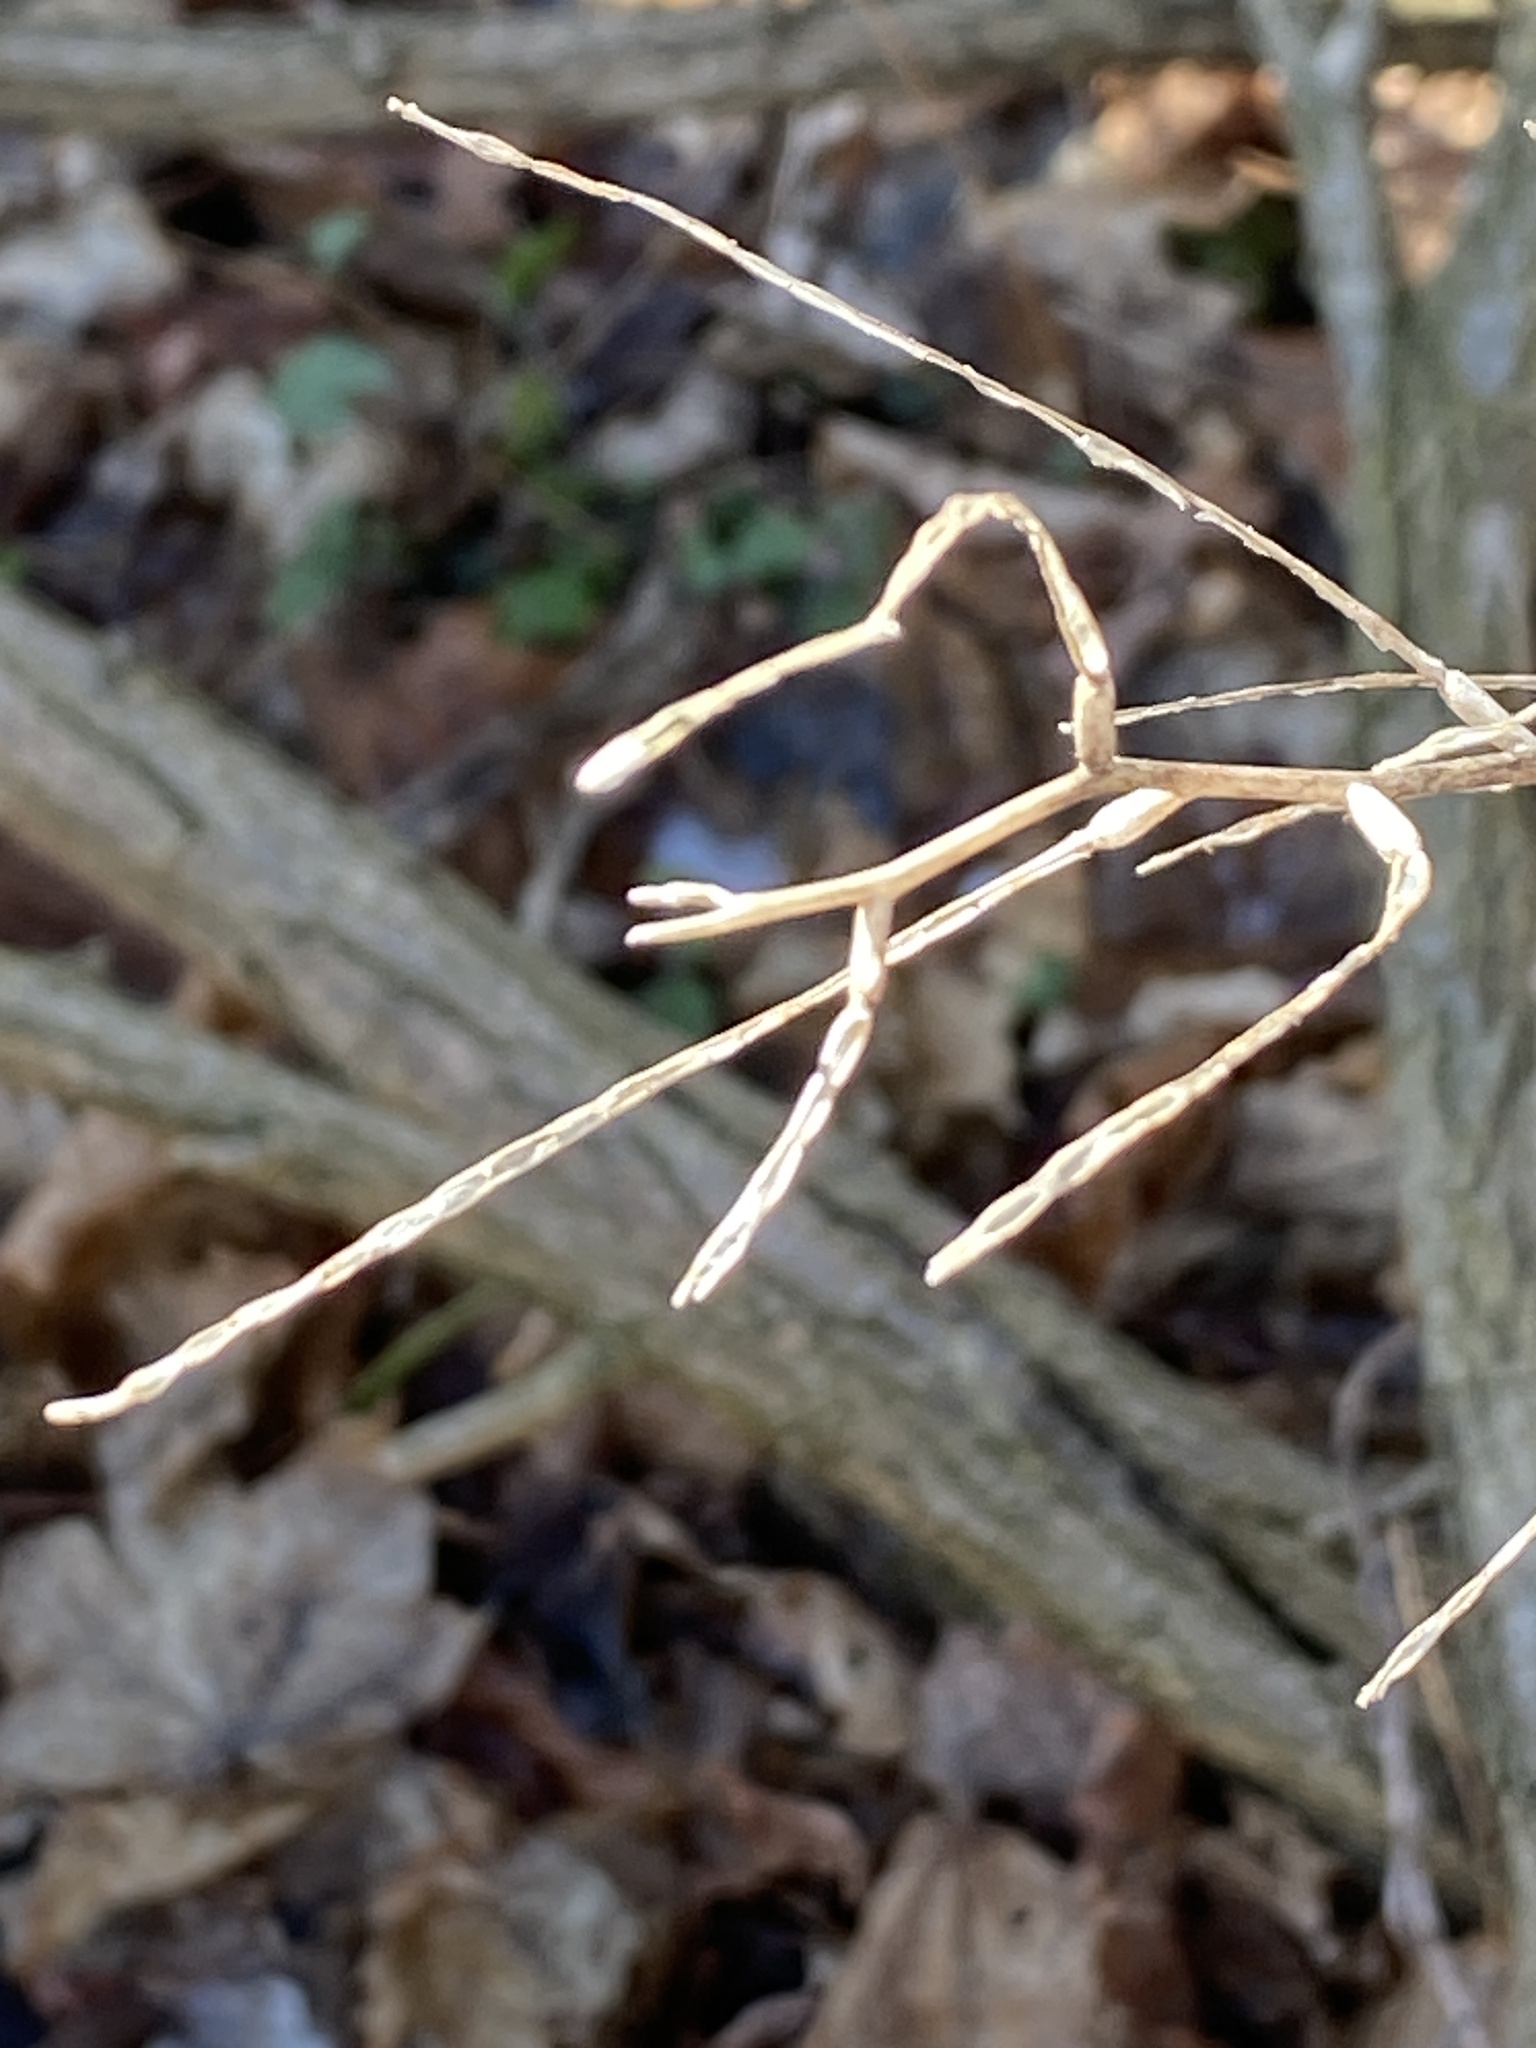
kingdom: Plantae
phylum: Tracheophyta
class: Magnoliopsida
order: Brassicales
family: Brassicaceae
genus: Alliaria
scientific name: Alliaria petiolata
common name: Garlic mustard
